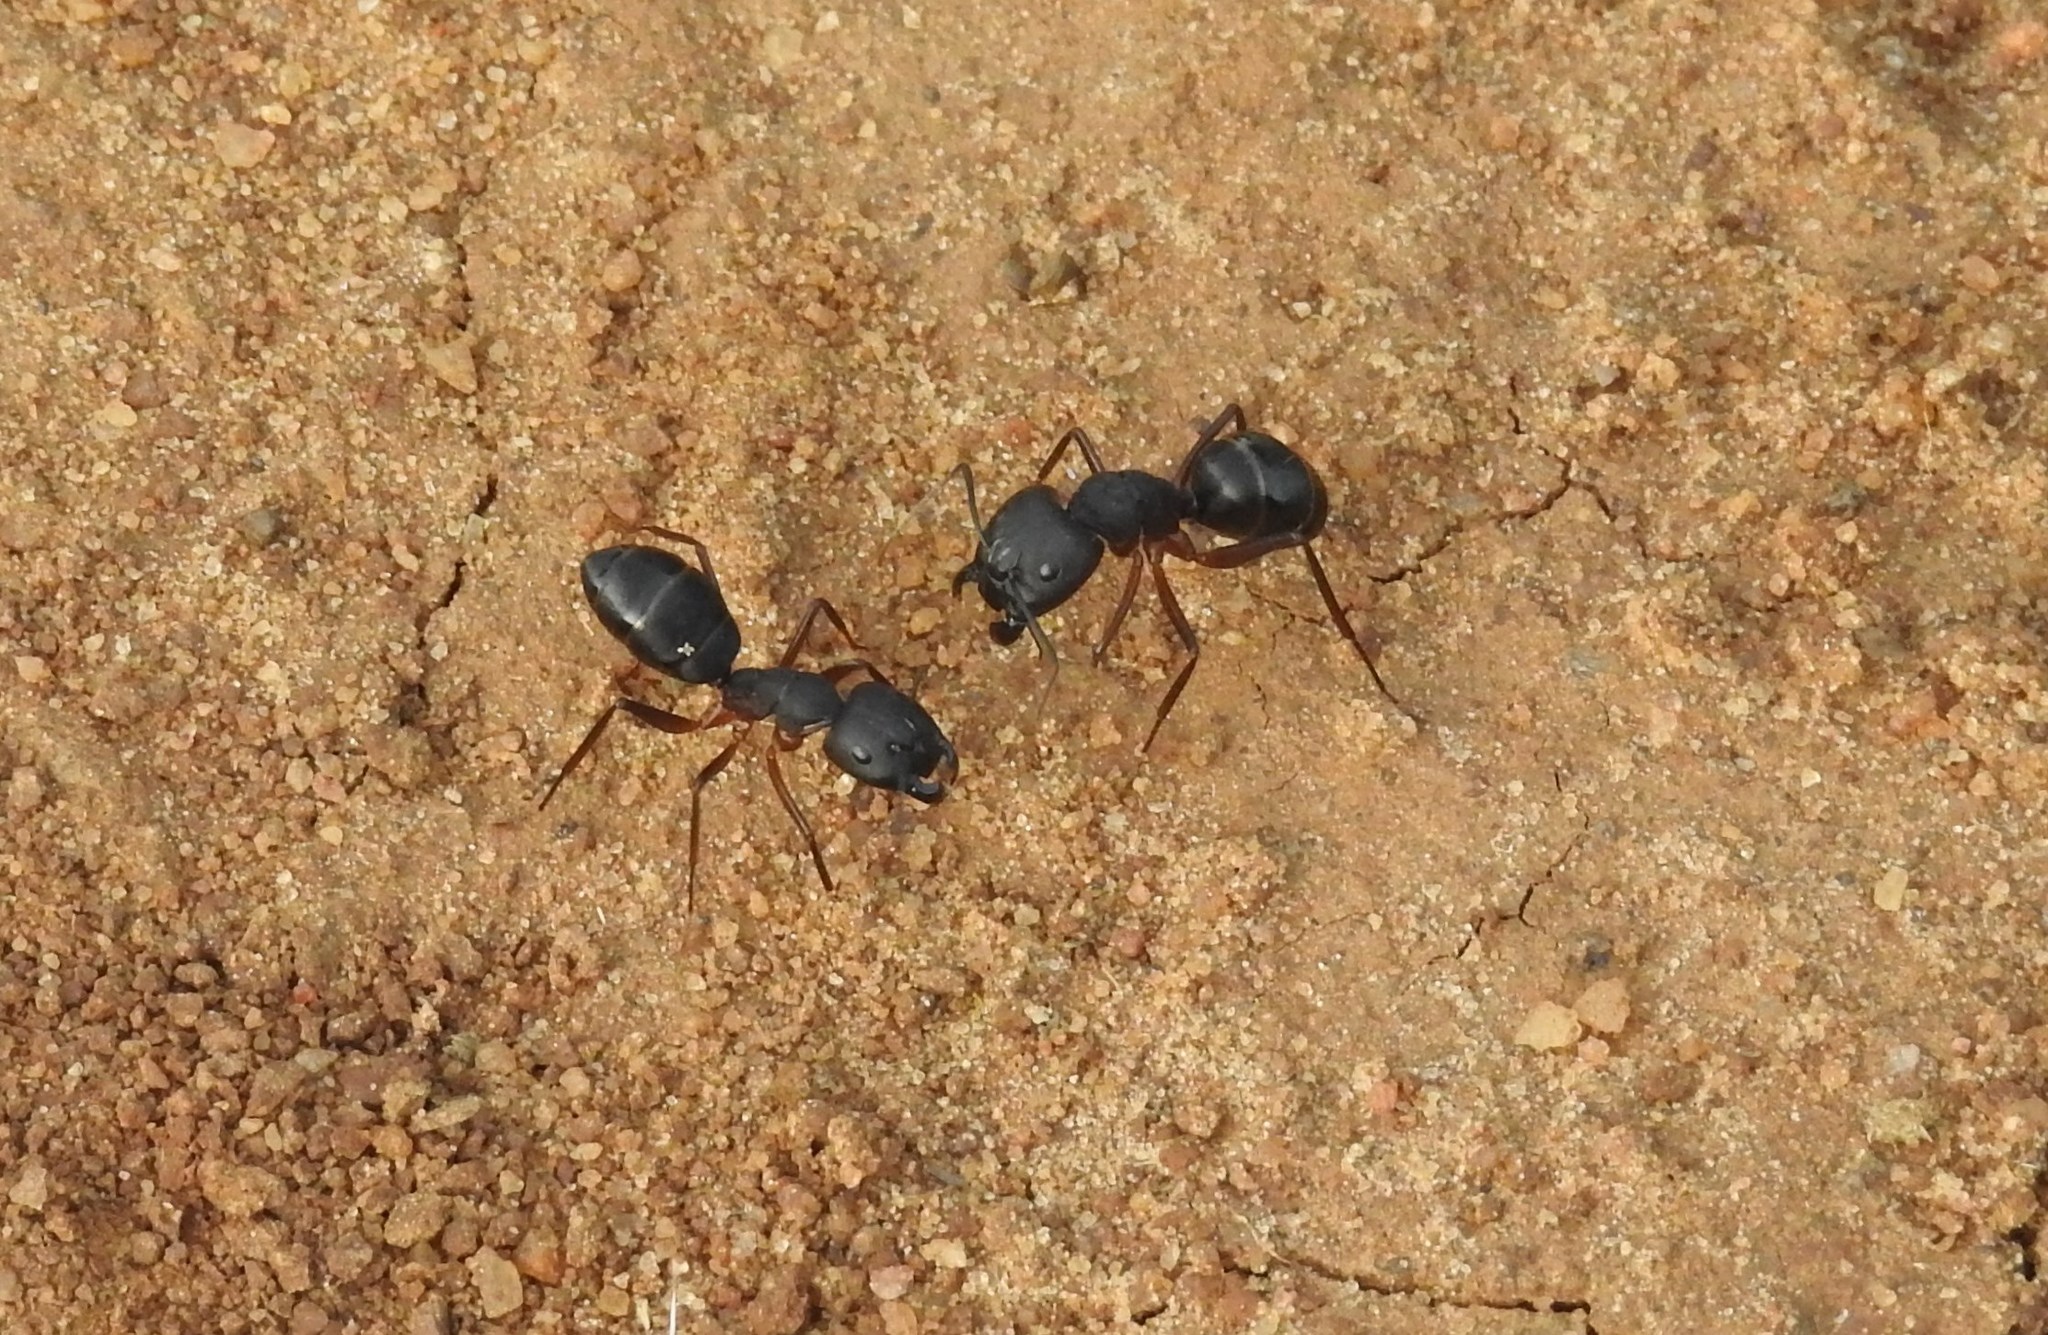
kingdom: Animalia
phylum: Arthropoda
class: Insecta
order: Hymenoptera
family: Formicidae
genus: Camponotus
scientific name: Camponotus compressus
